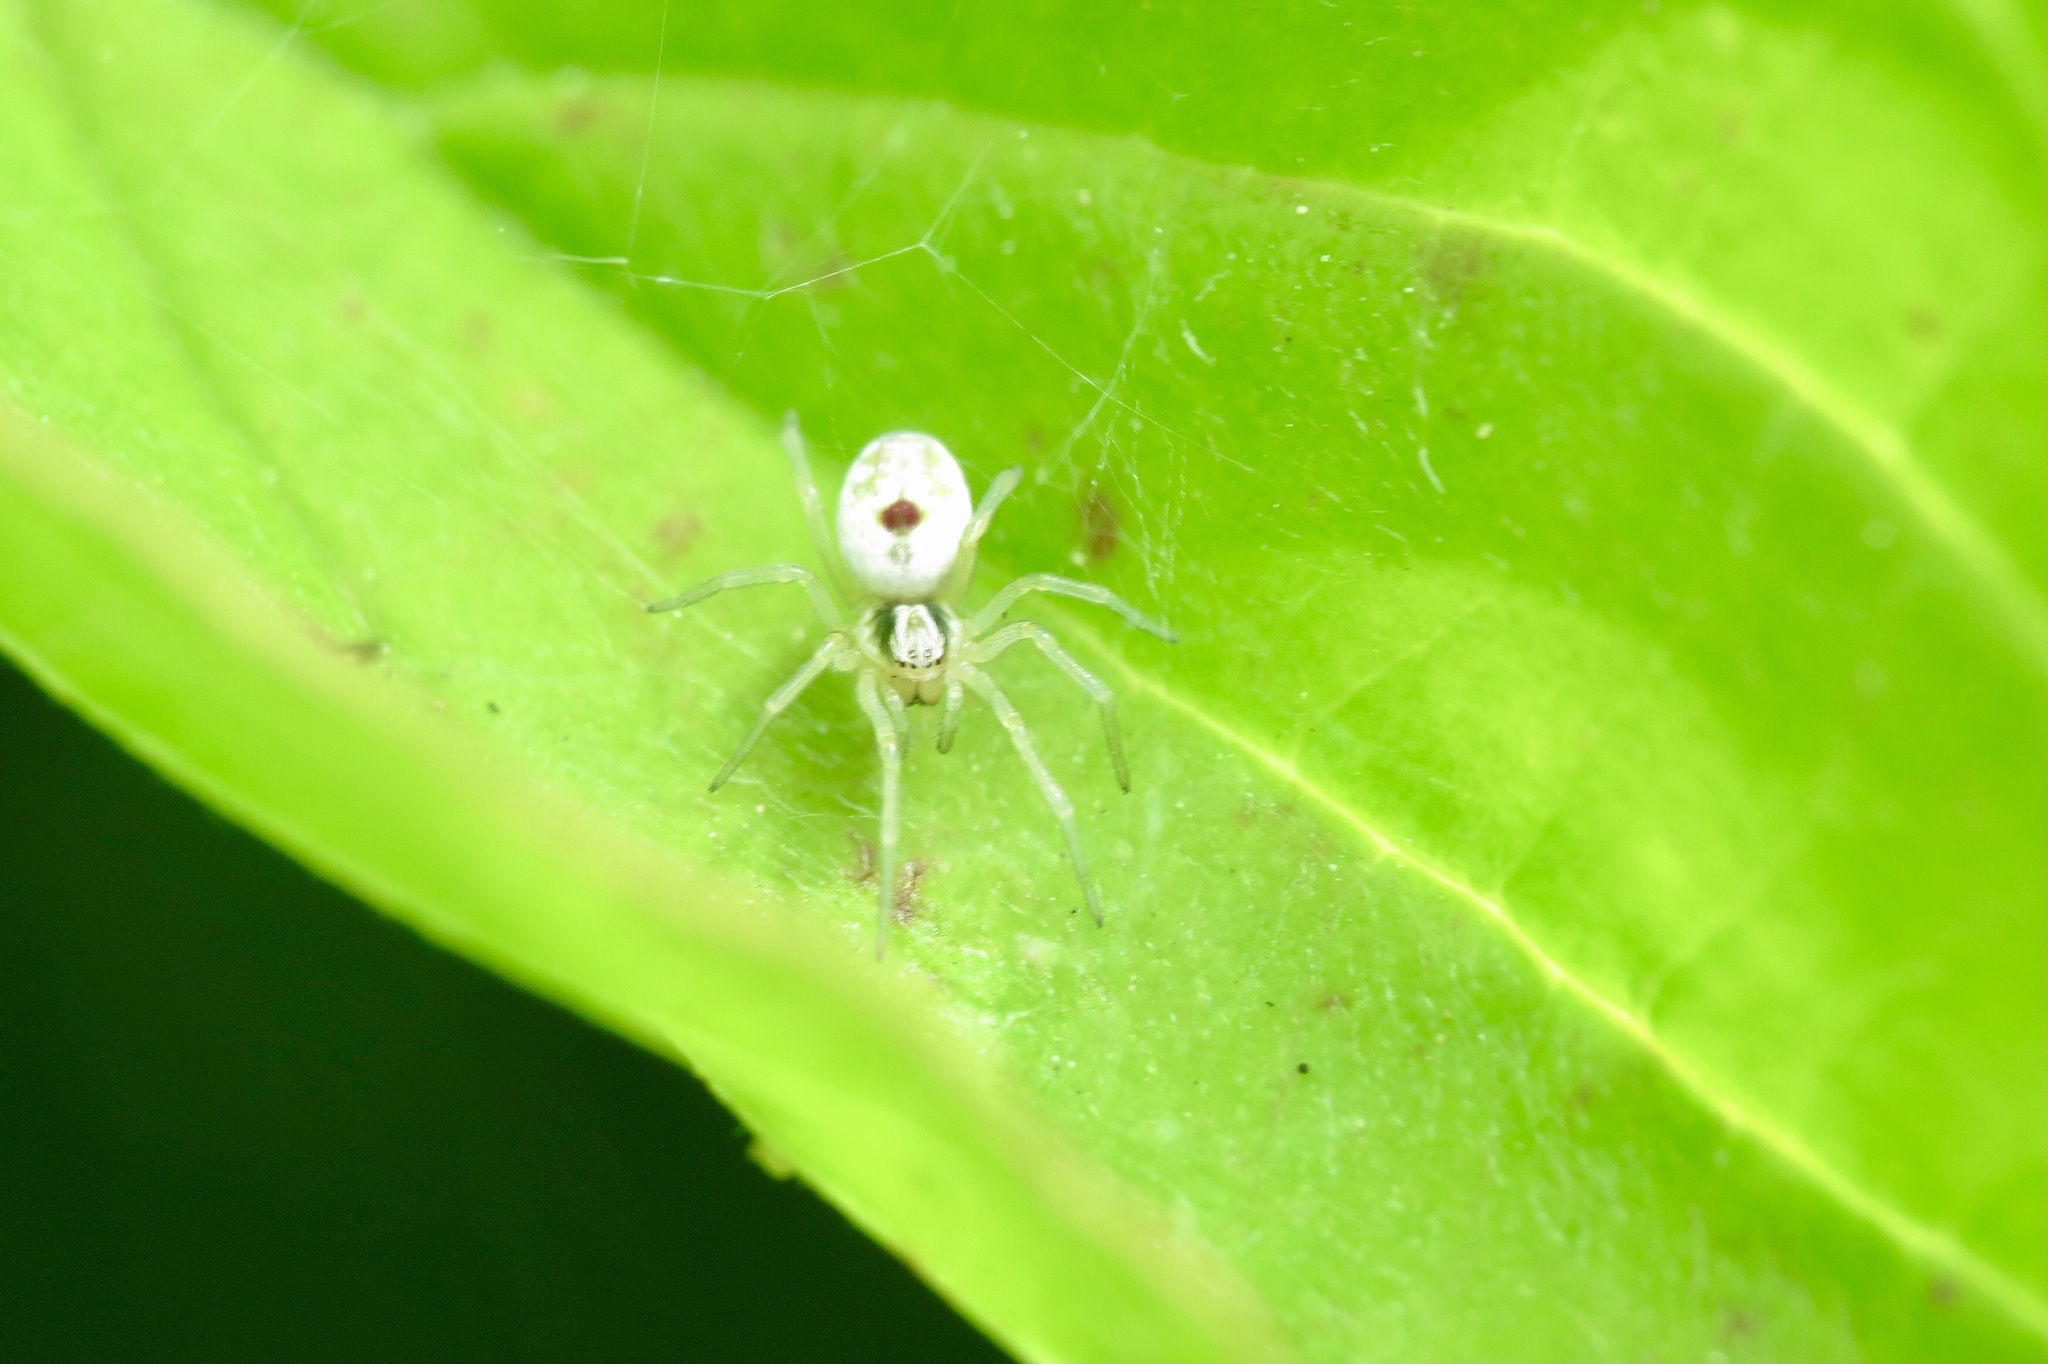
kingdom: Animalia
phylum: Arthropoda
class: Arachnida
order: Araneae
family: Dictynidae
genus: Nigma
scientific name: Nigma puella
